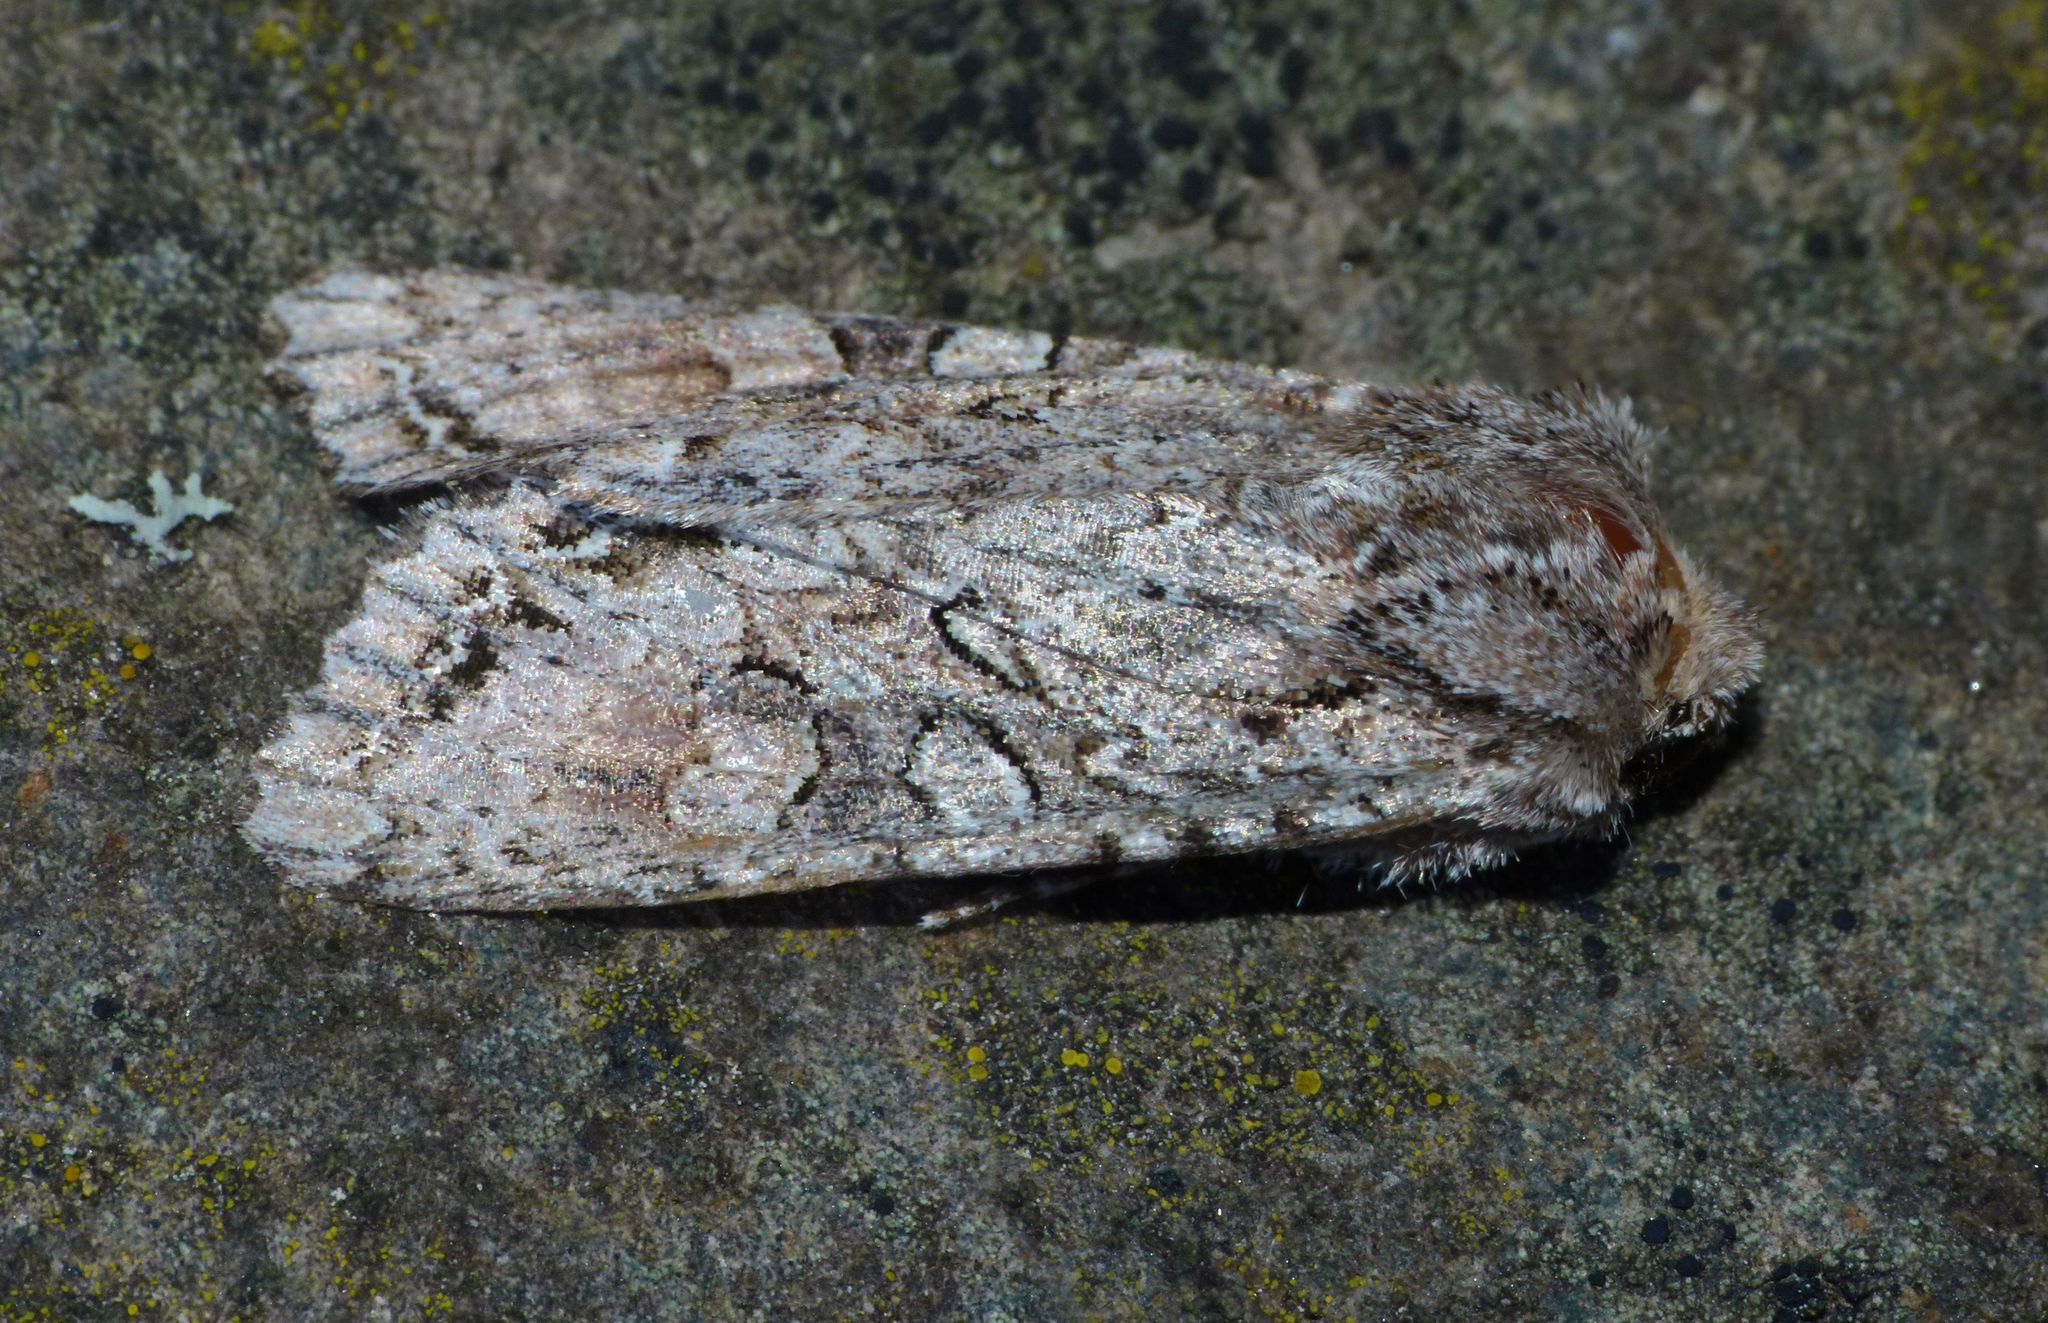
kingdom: Animalia
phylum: Arthropoda
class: Insecta
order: Lepidoptera
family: Noctuidae
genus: Ichneutica
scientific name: Ichneutica mutans
